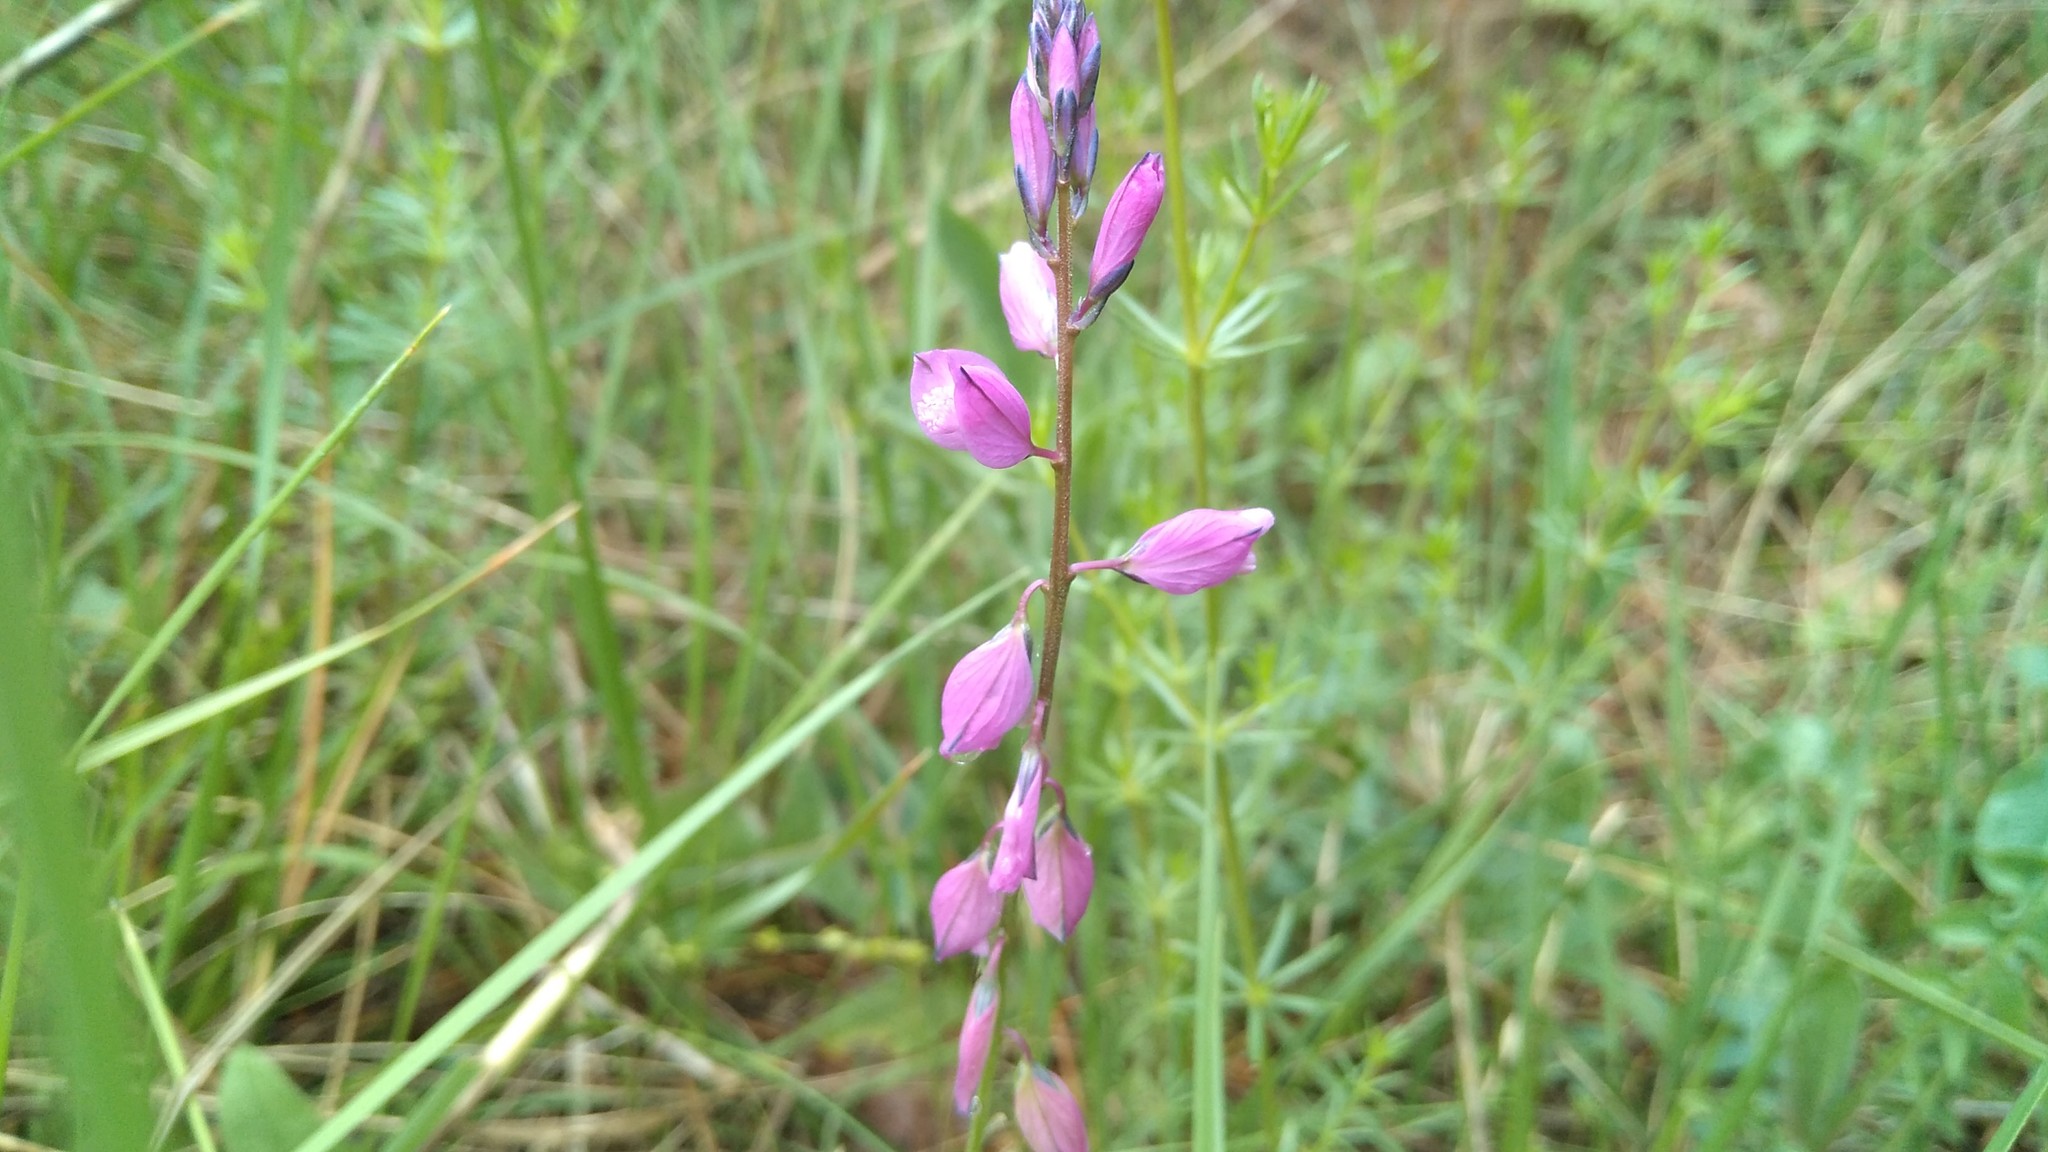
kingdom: Plantae
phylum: Tracheophyta
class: Magnoliopsida
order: Fabales
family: Polygalaceae
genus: Polygala
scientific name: Polygala vulgaris
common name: Common milkwort
